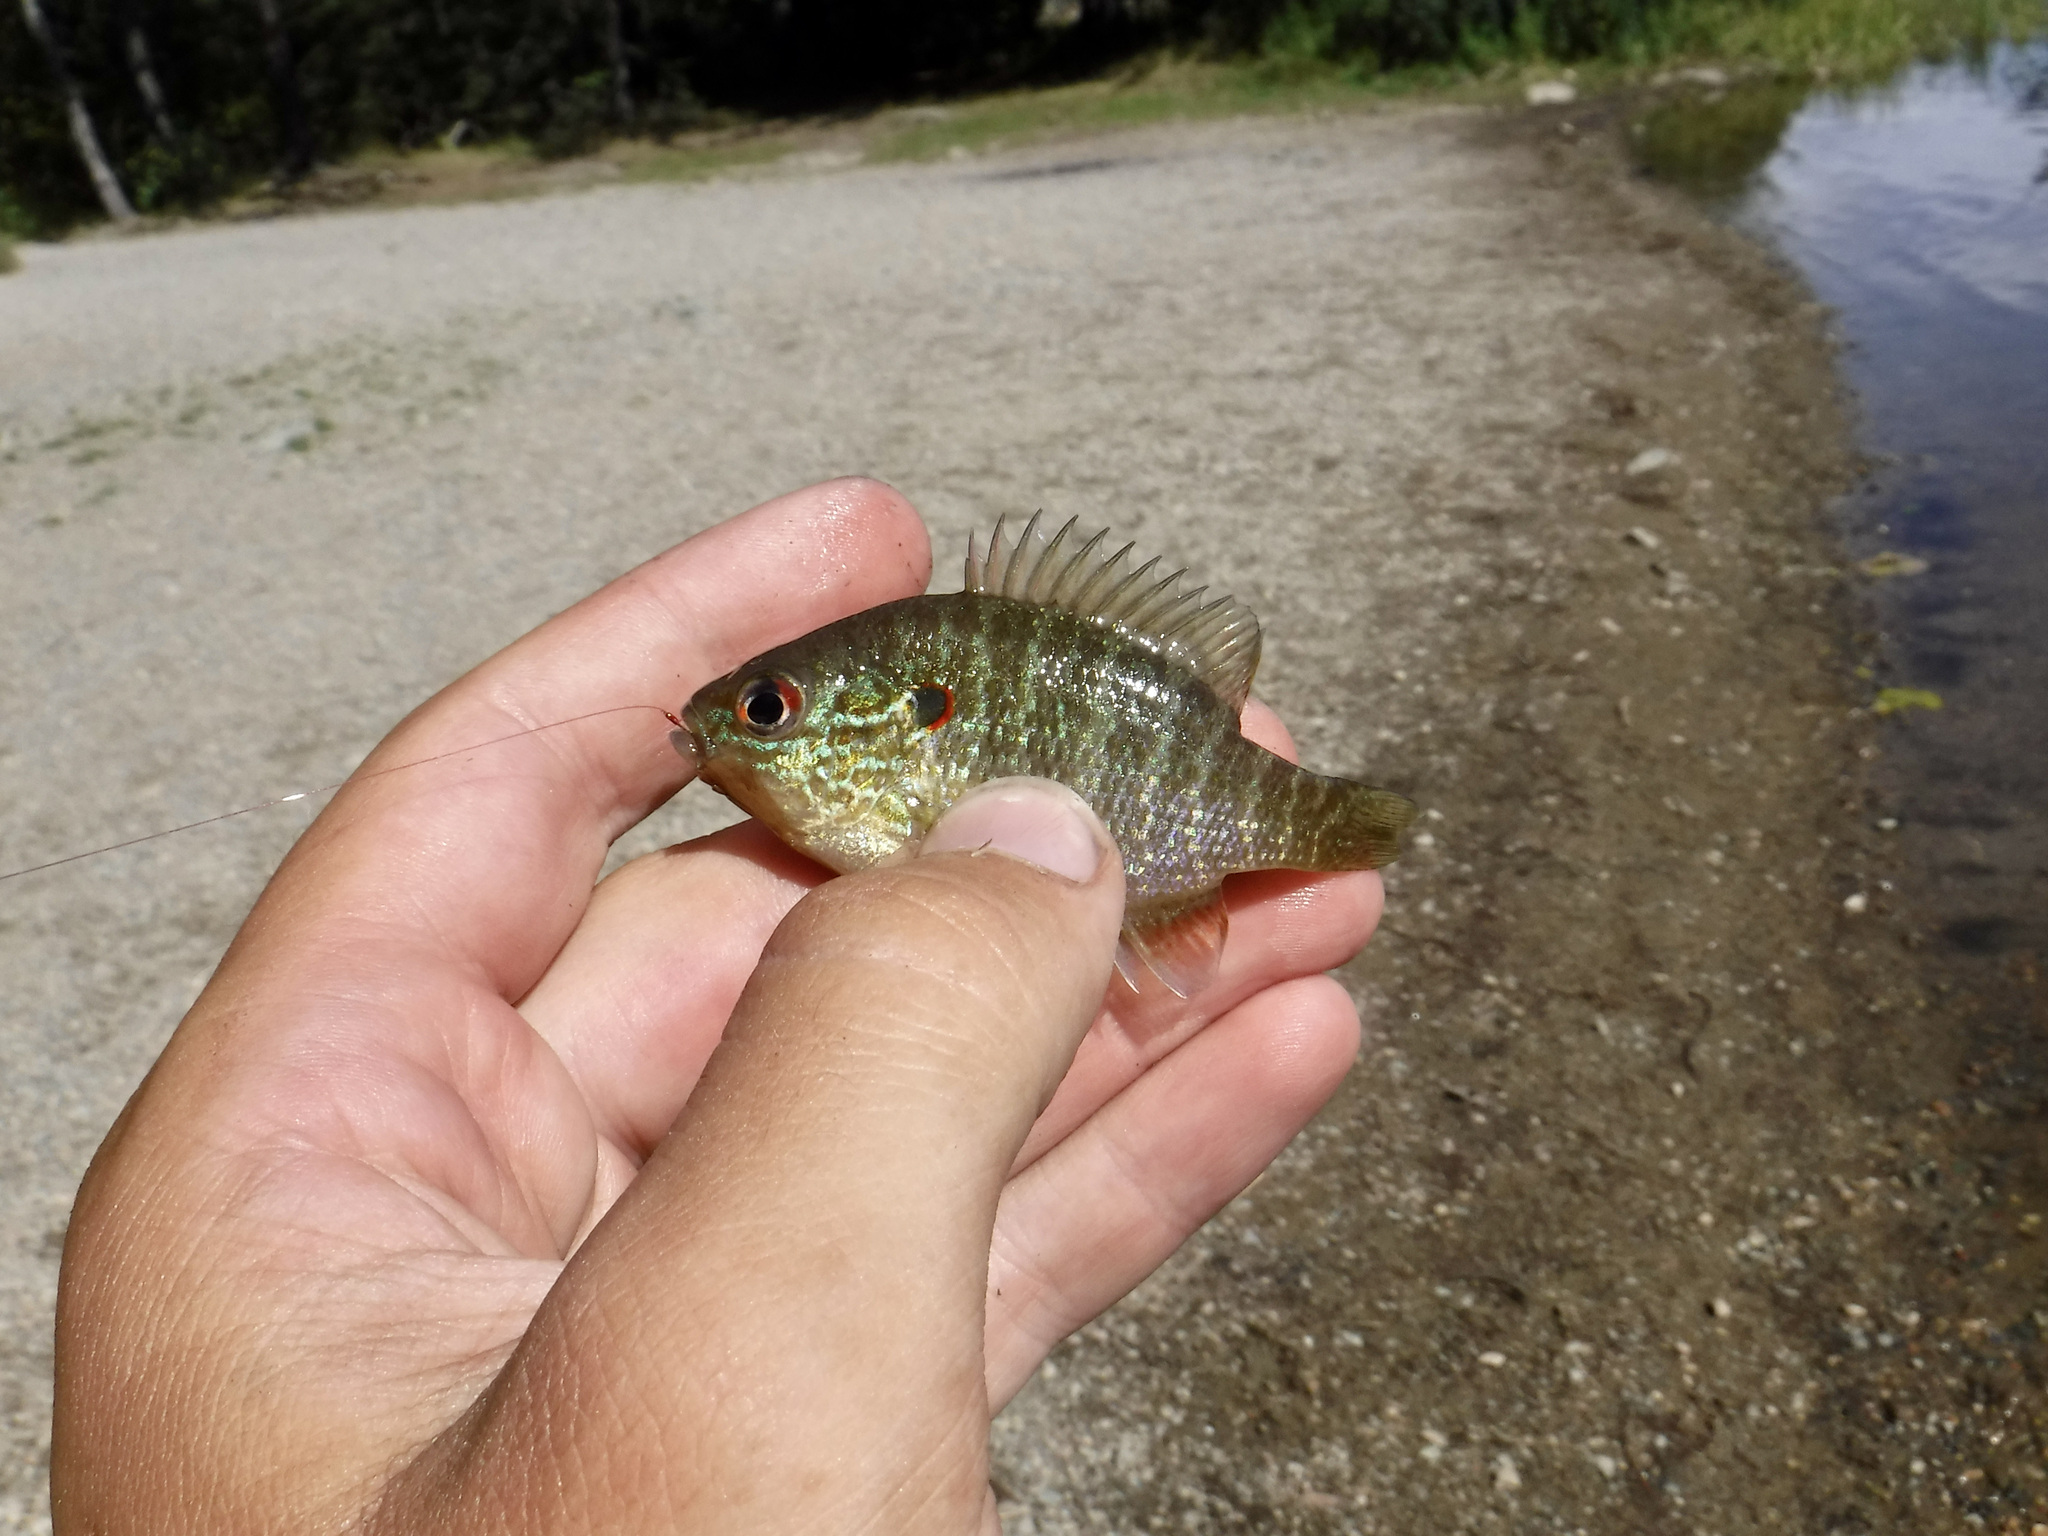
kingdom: Animalia
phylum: Chordata
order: Perciformes
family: Centrarchidae
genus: Lepomis
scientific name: Lepomis peltastes
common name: Northern sunfish
